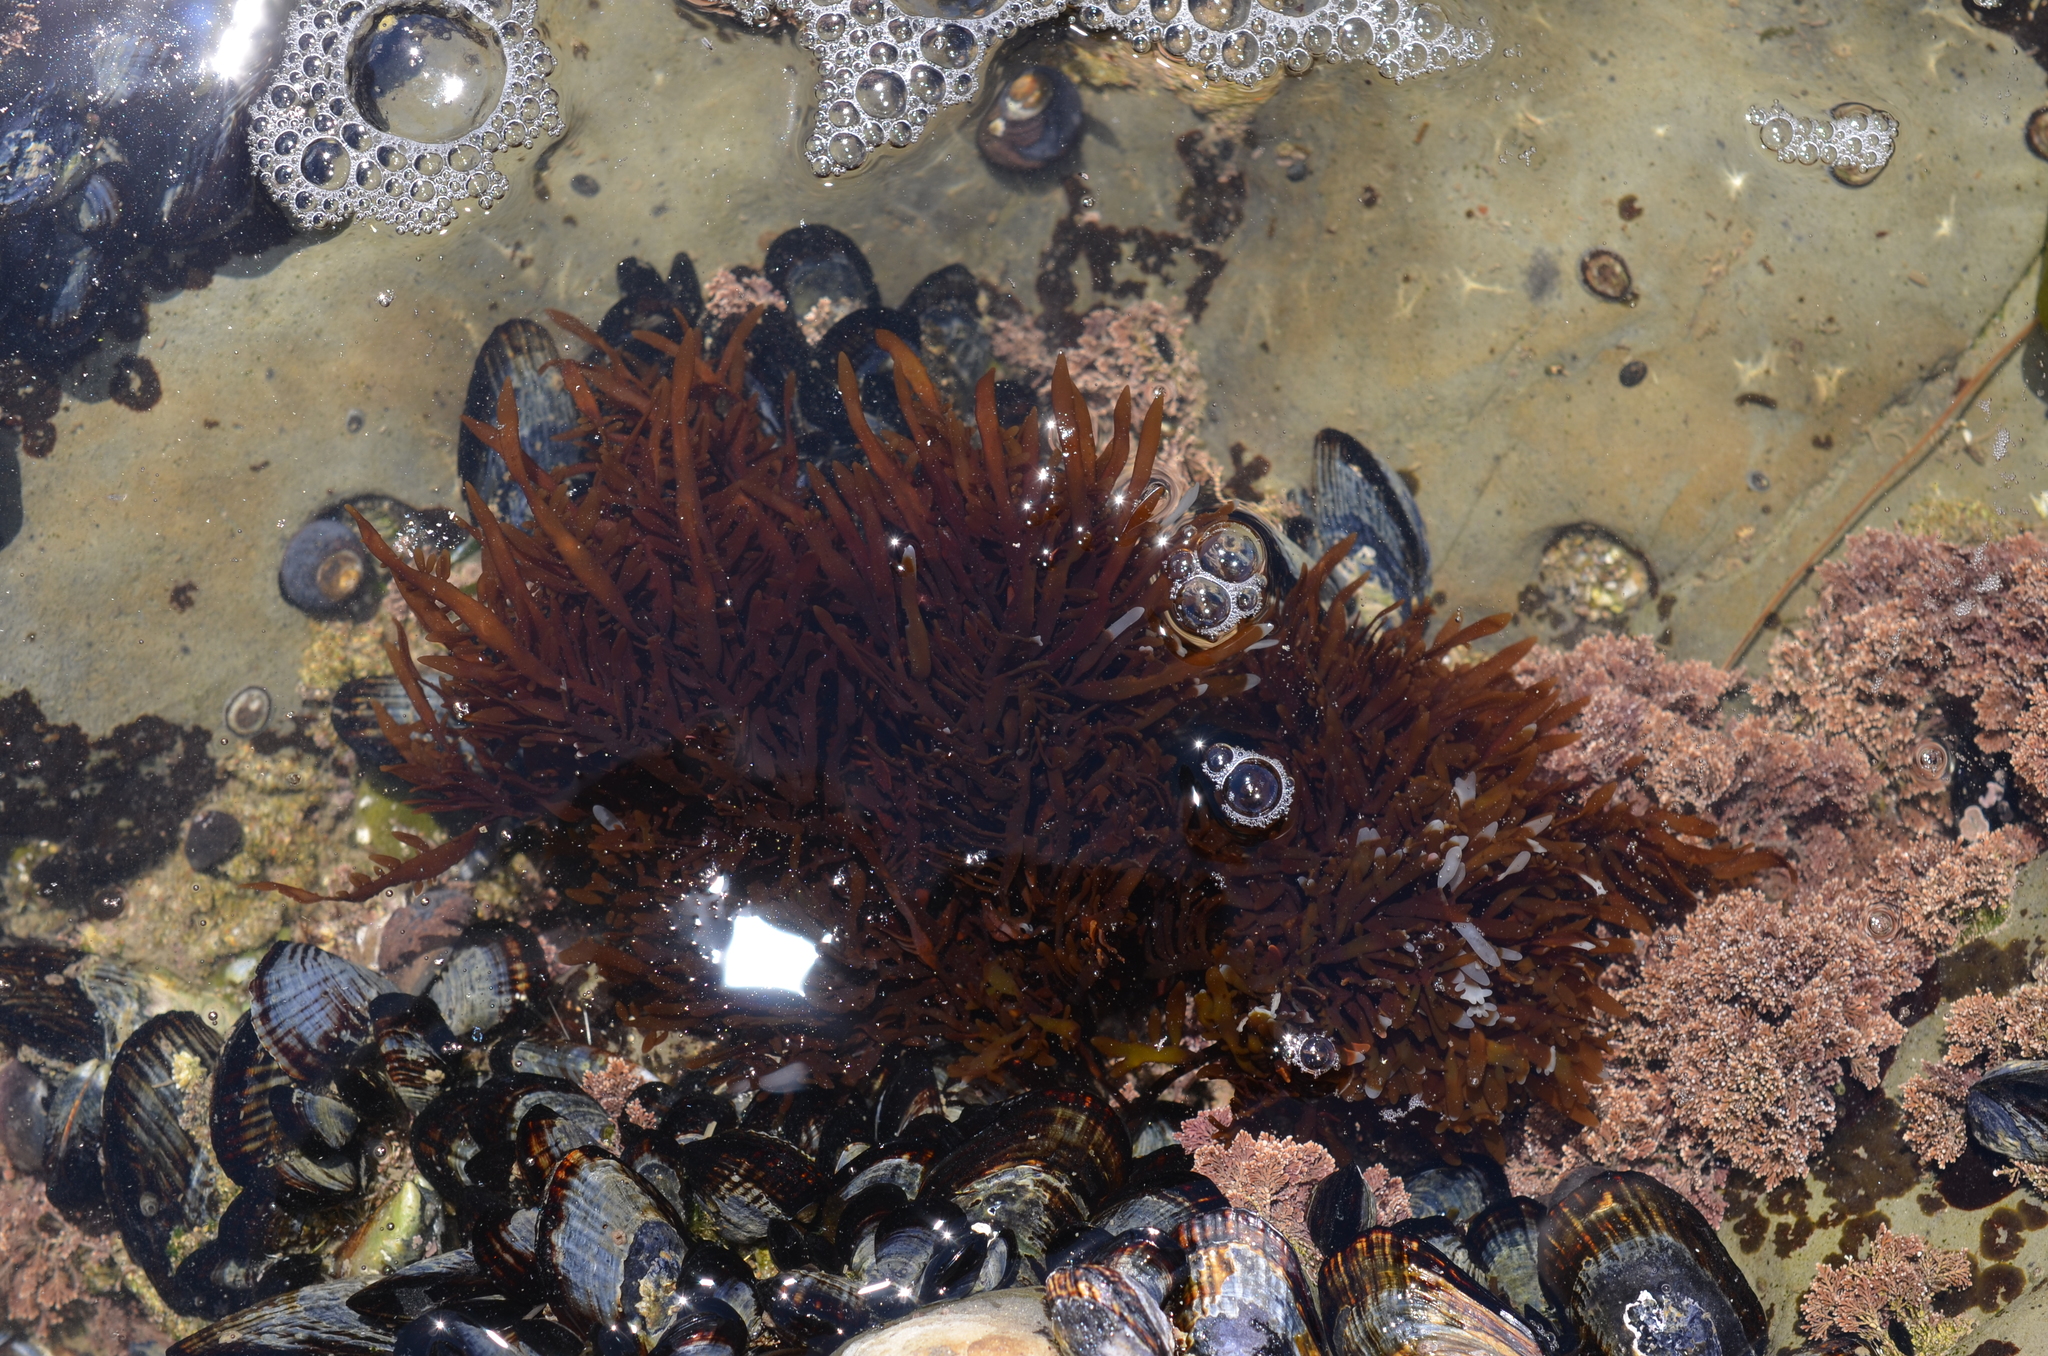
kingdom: Plantae
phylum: Rhodophyta
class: Florideophyceae
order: Halymeniales
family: Halymeniaceae
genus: Grateloupia
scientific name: Grateloupia Prionitis lanceolata
